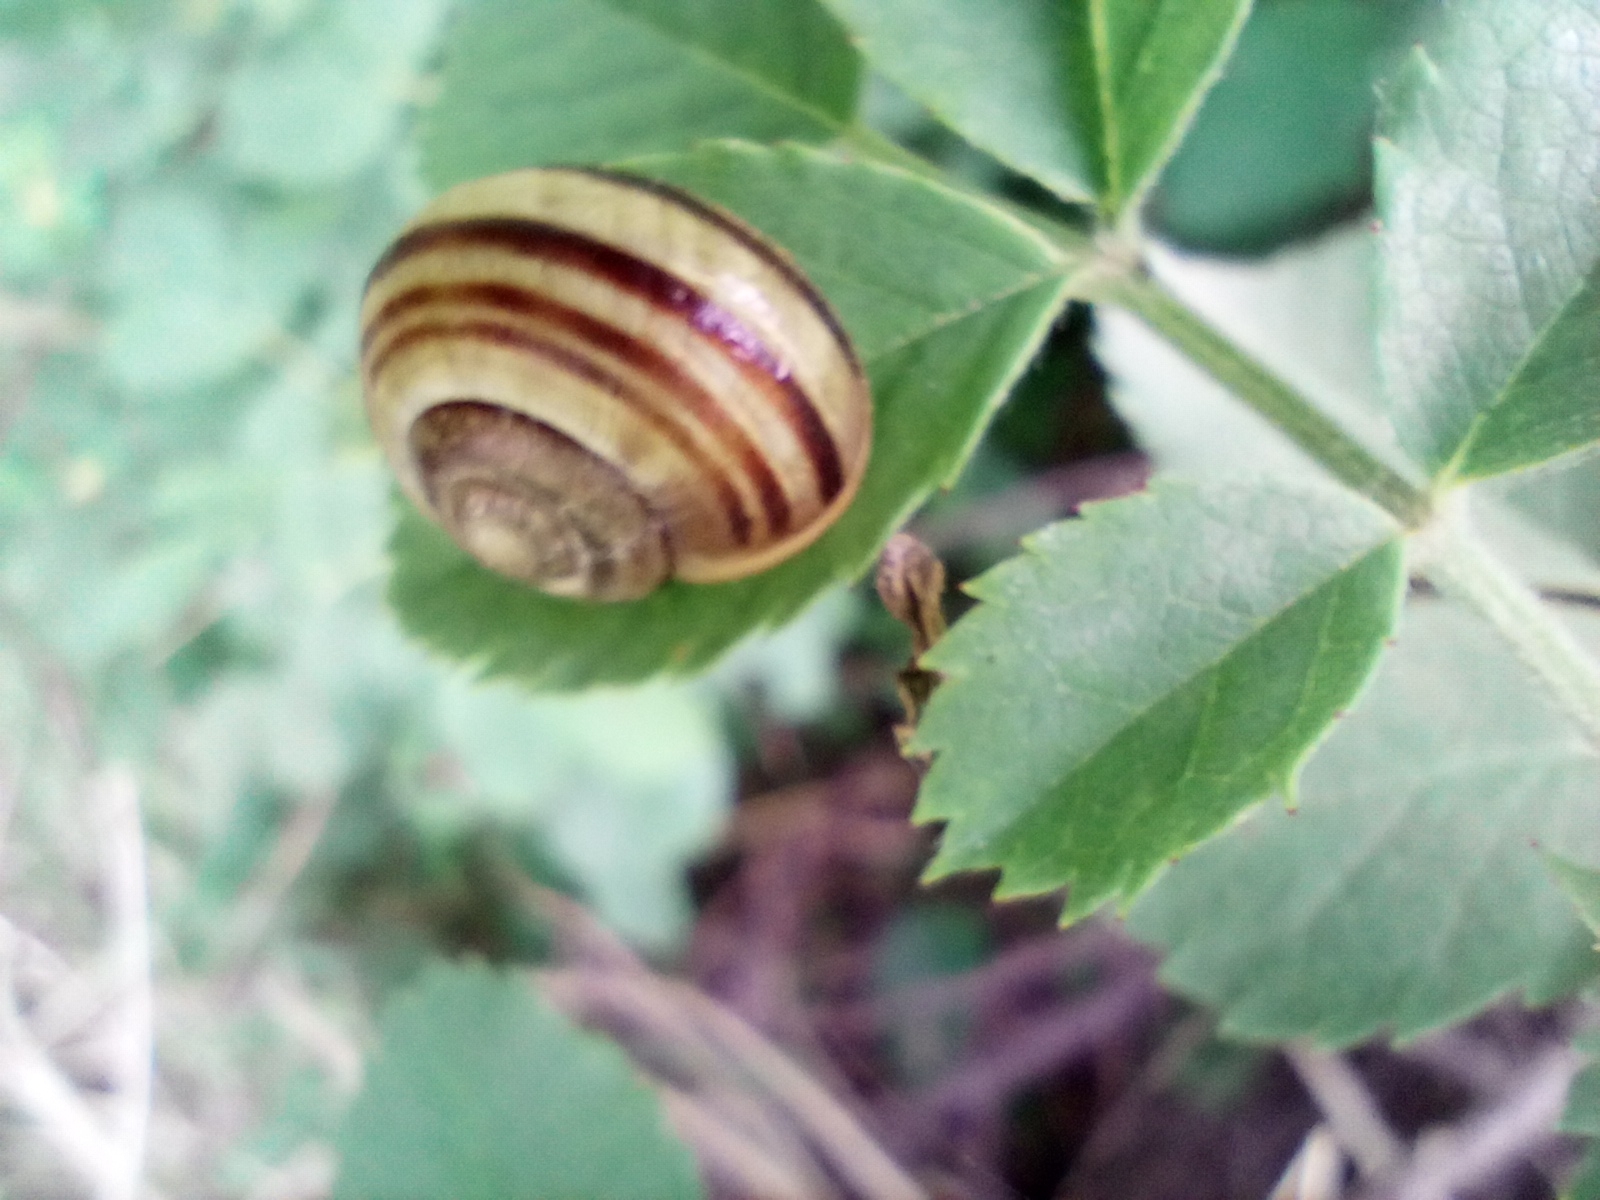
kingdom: Animalia
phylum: Mollusca
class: Gastropoda
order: Stylommatophora
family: Helicidae
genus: Cepaea
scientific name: Cepaea
